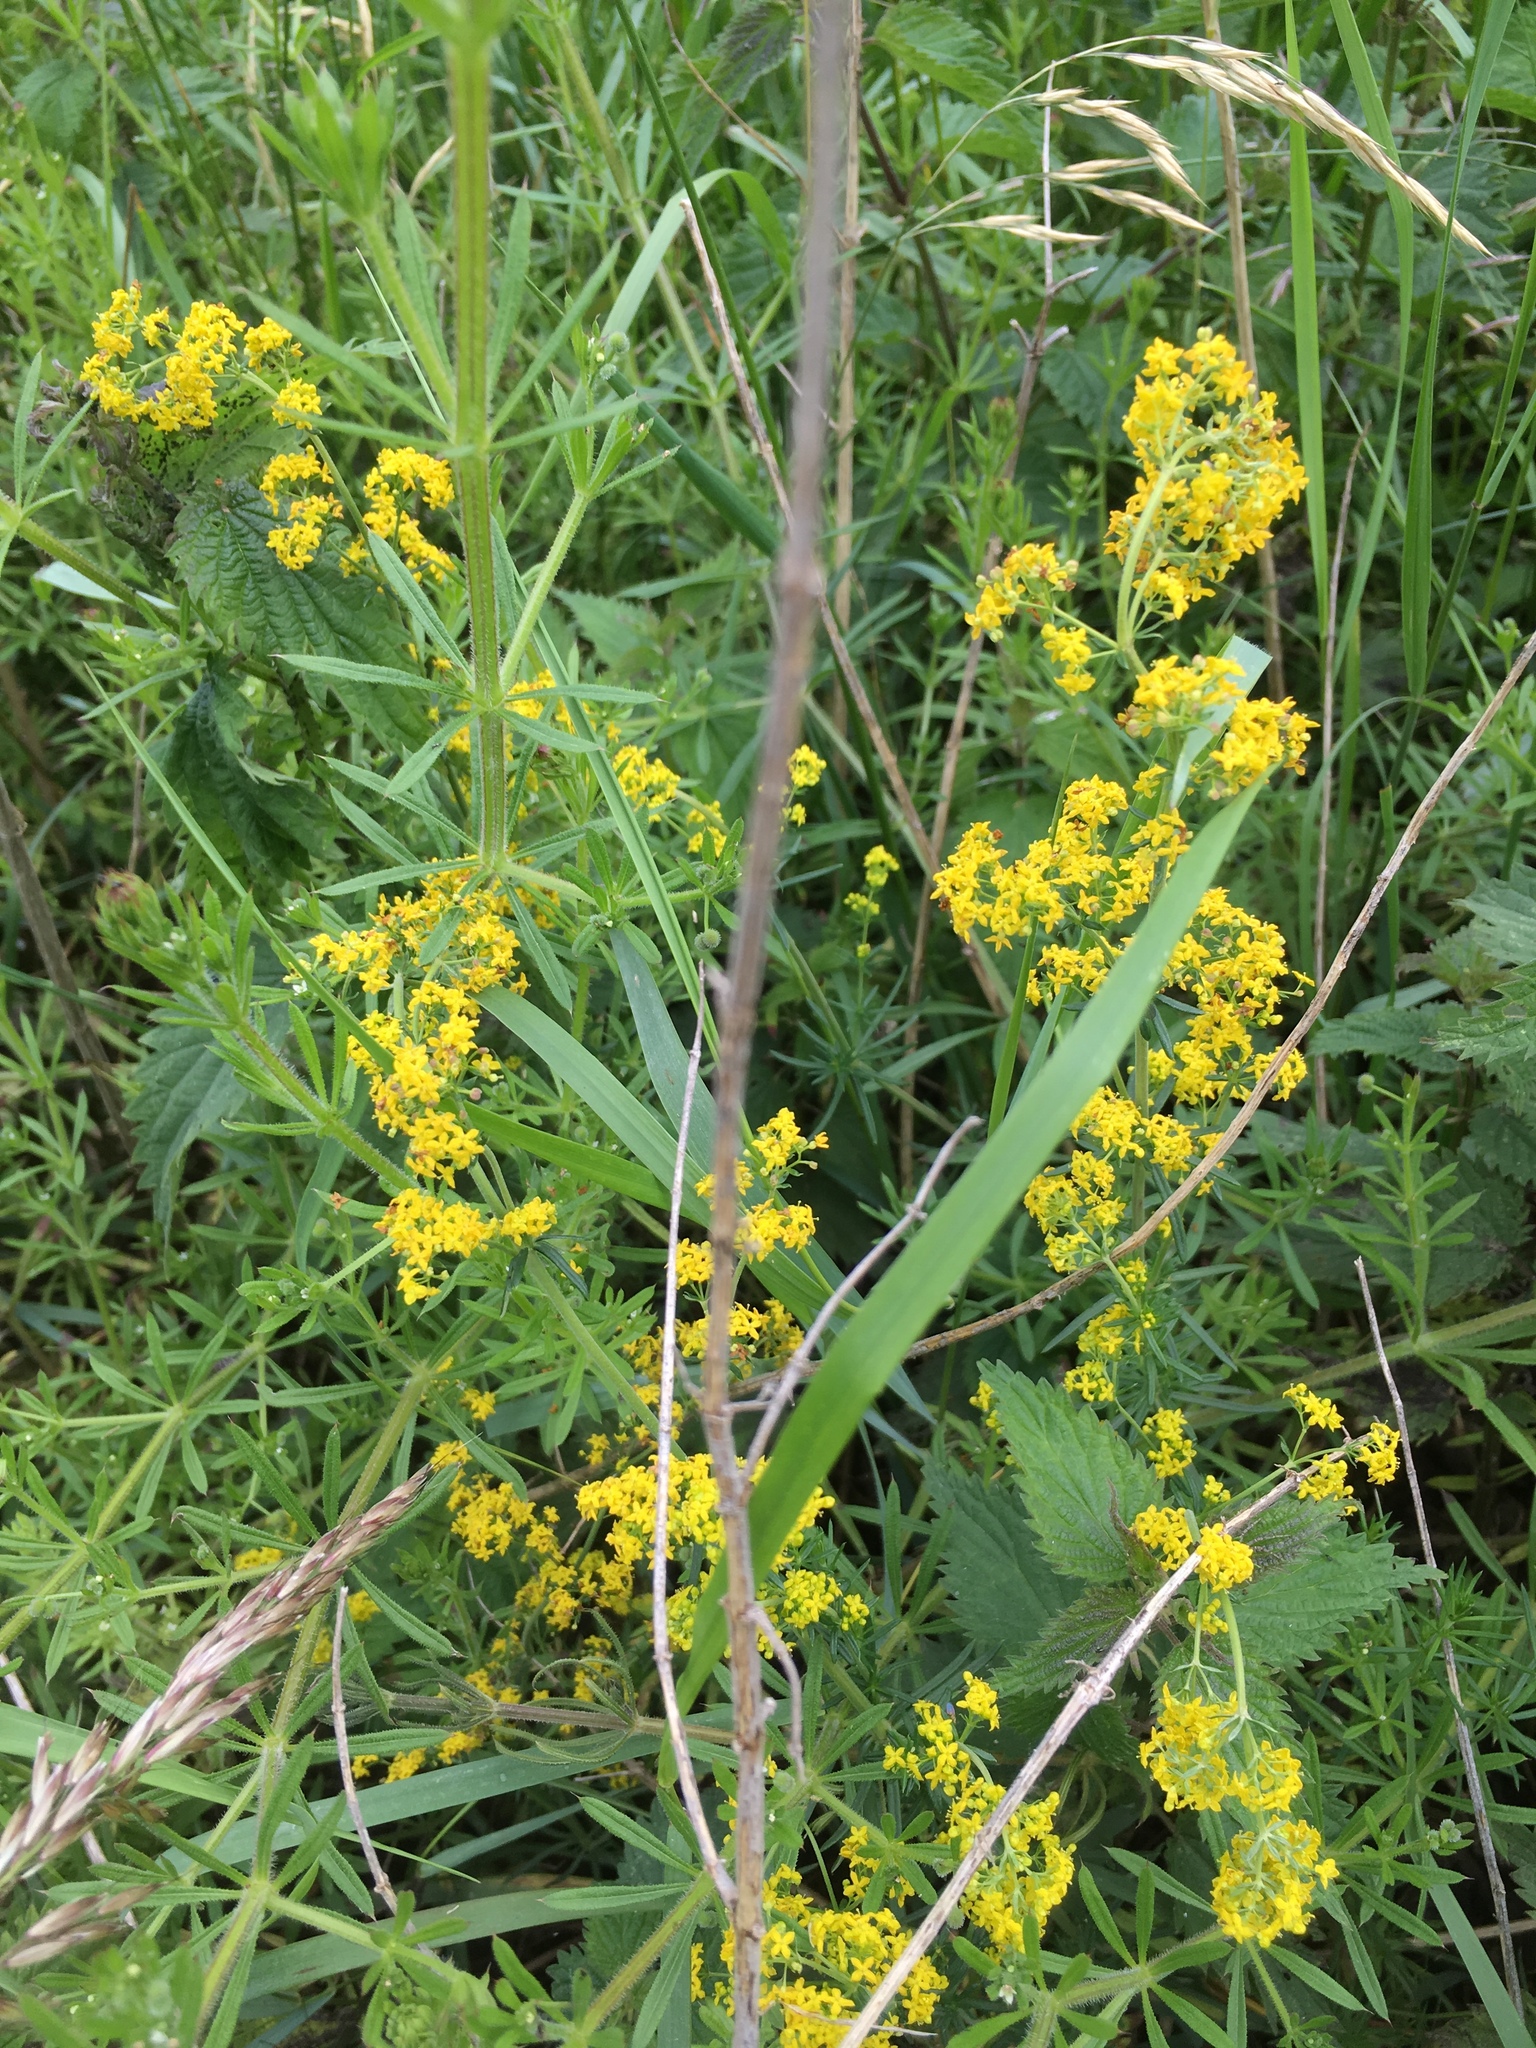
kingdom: Plantae
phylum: Tracheophyta
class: Magnoliopsida
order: Gentianales
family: Rubiaceae
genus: Galium
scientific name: Galium verum
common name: Lady's bedstraw
